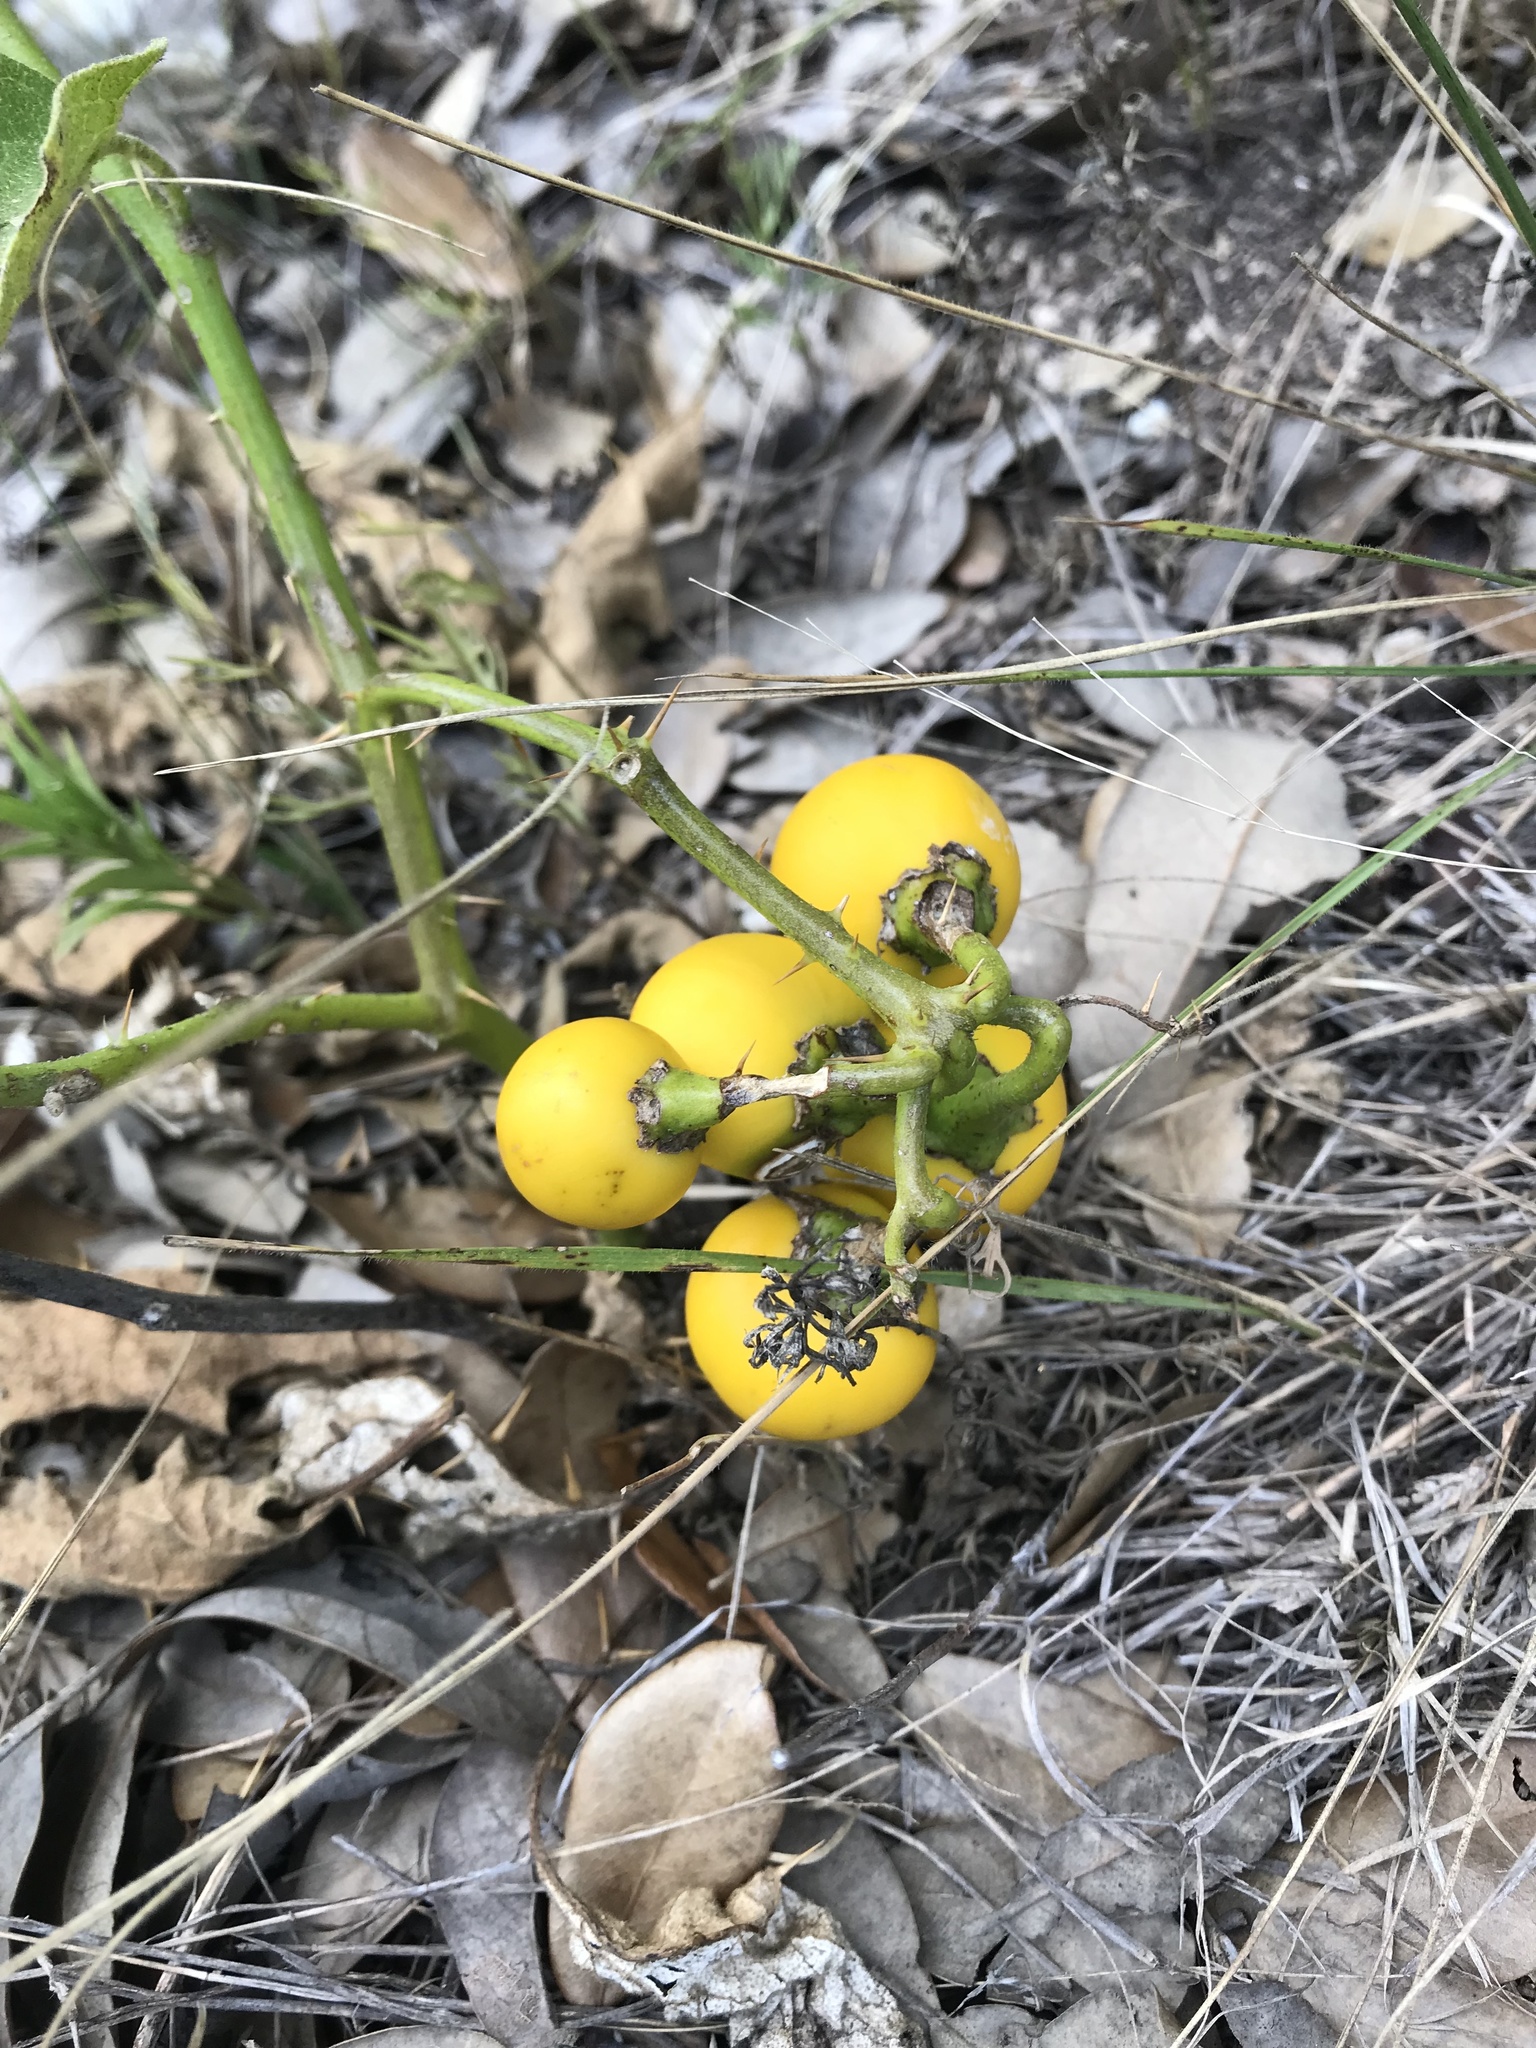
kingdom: Plantae
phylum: Tracheophyta
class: Magnoliopsida
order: Solanales
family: Solanaceae
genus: Solanum
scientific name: Solanum dimidiatum
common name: Carolina horse-nettle
